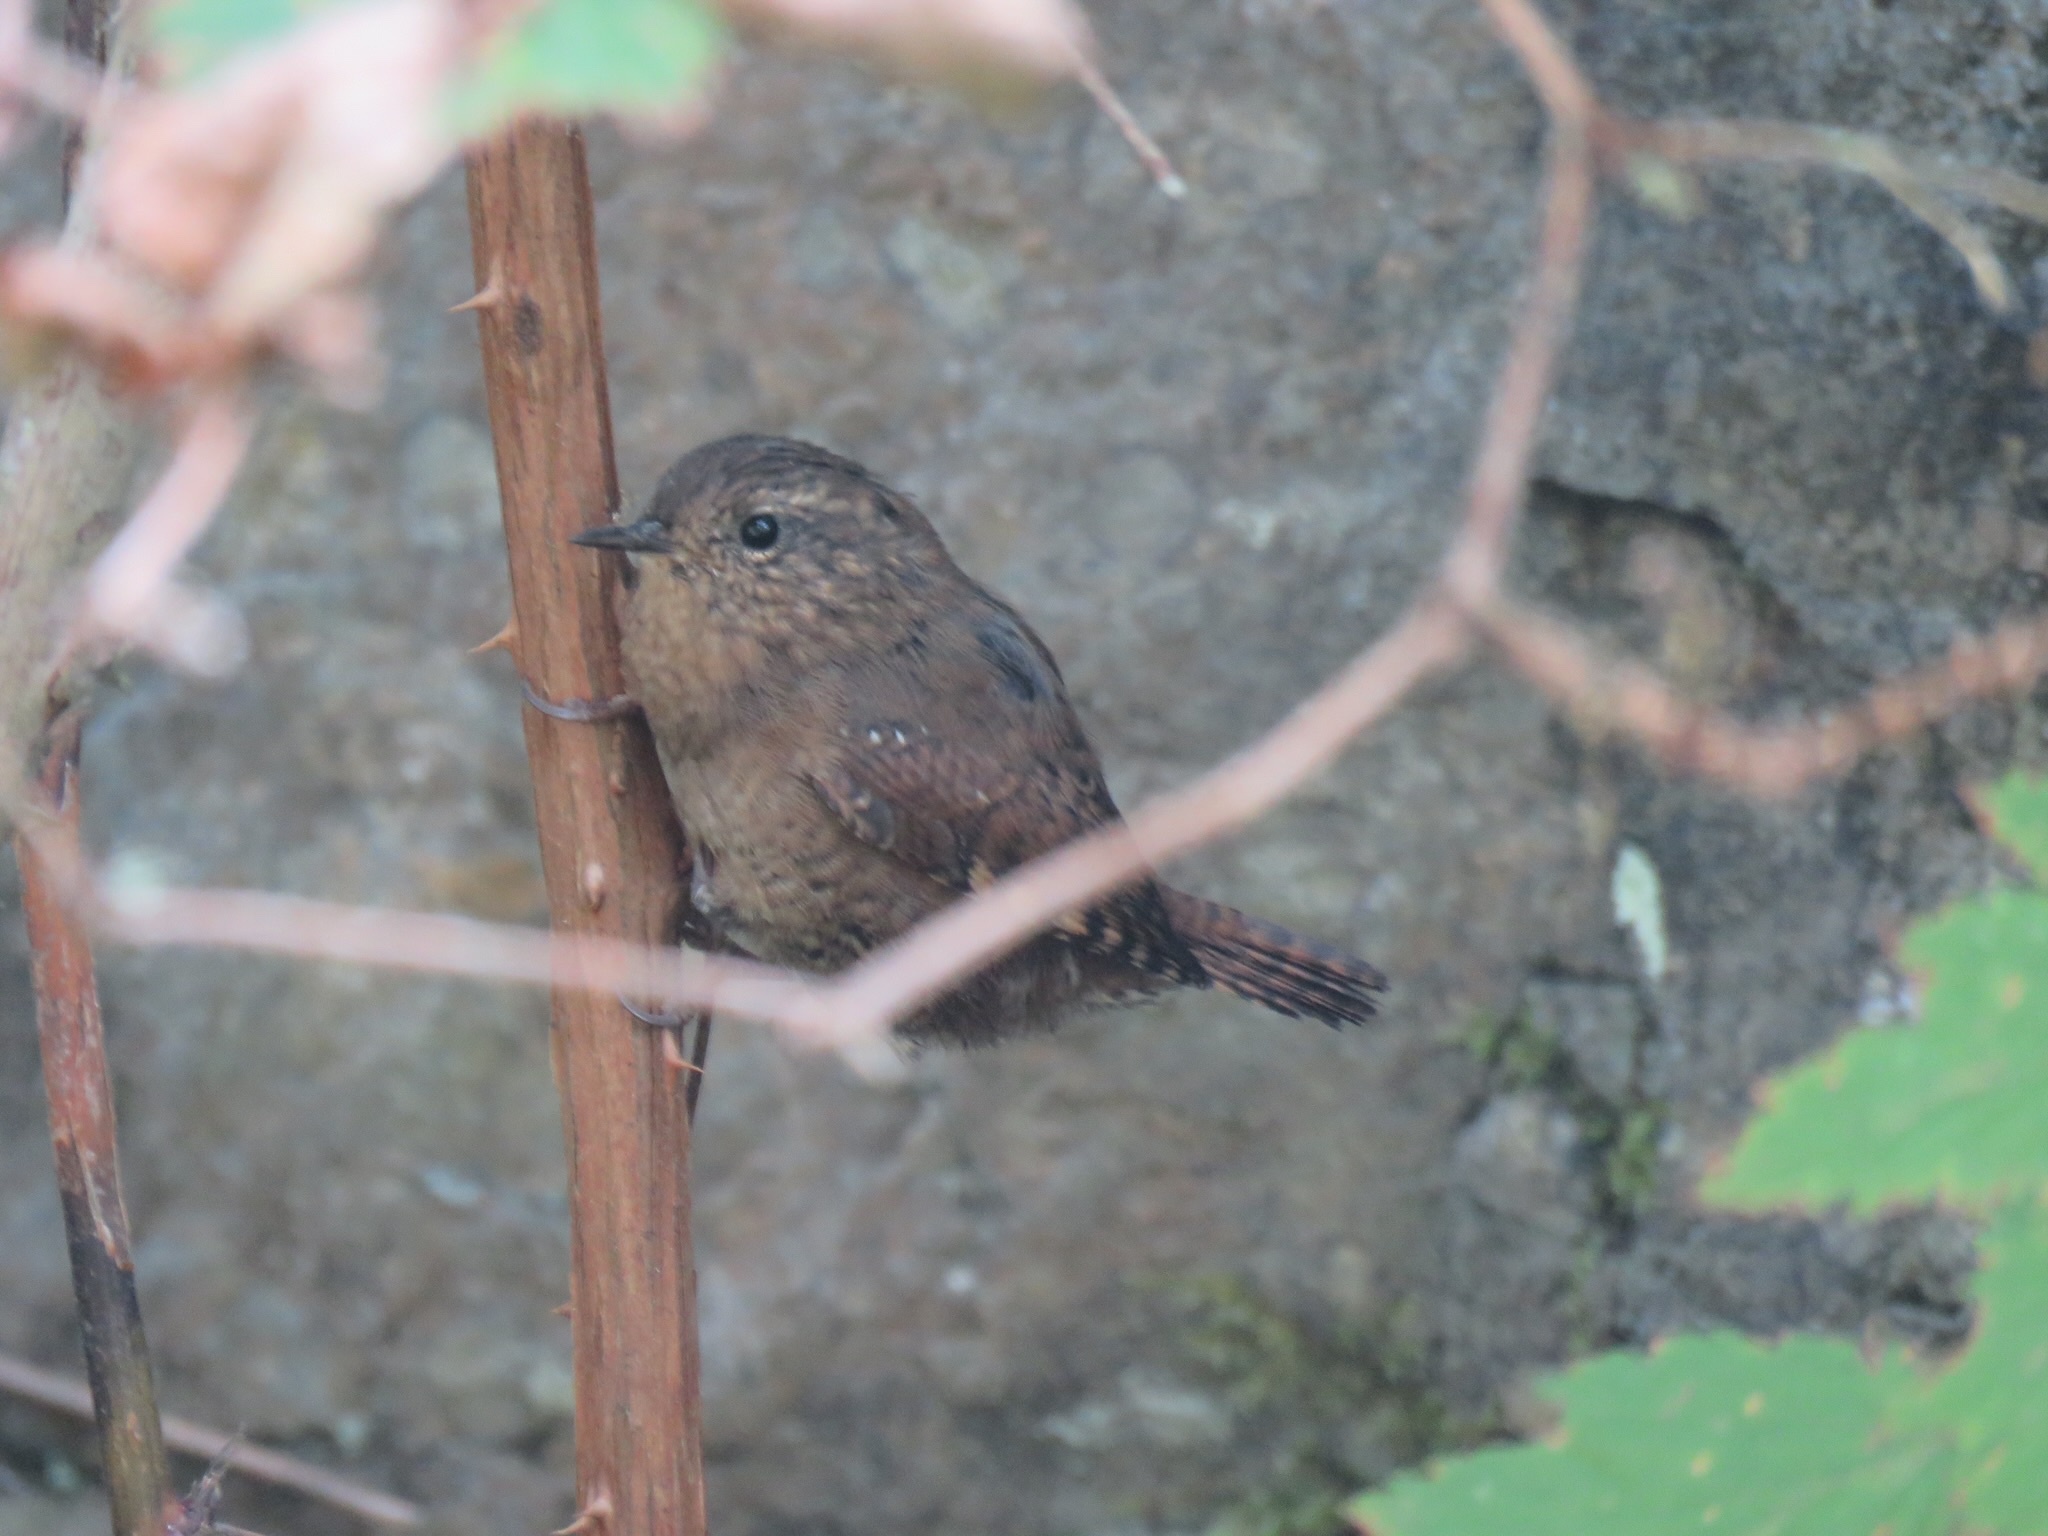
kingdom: Animalia
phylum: Chordata
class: Aves
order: Passeriformes
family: Troglodytidae
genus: Troglodytes
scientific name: Troglodytes pacificus
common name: Pacific wren
